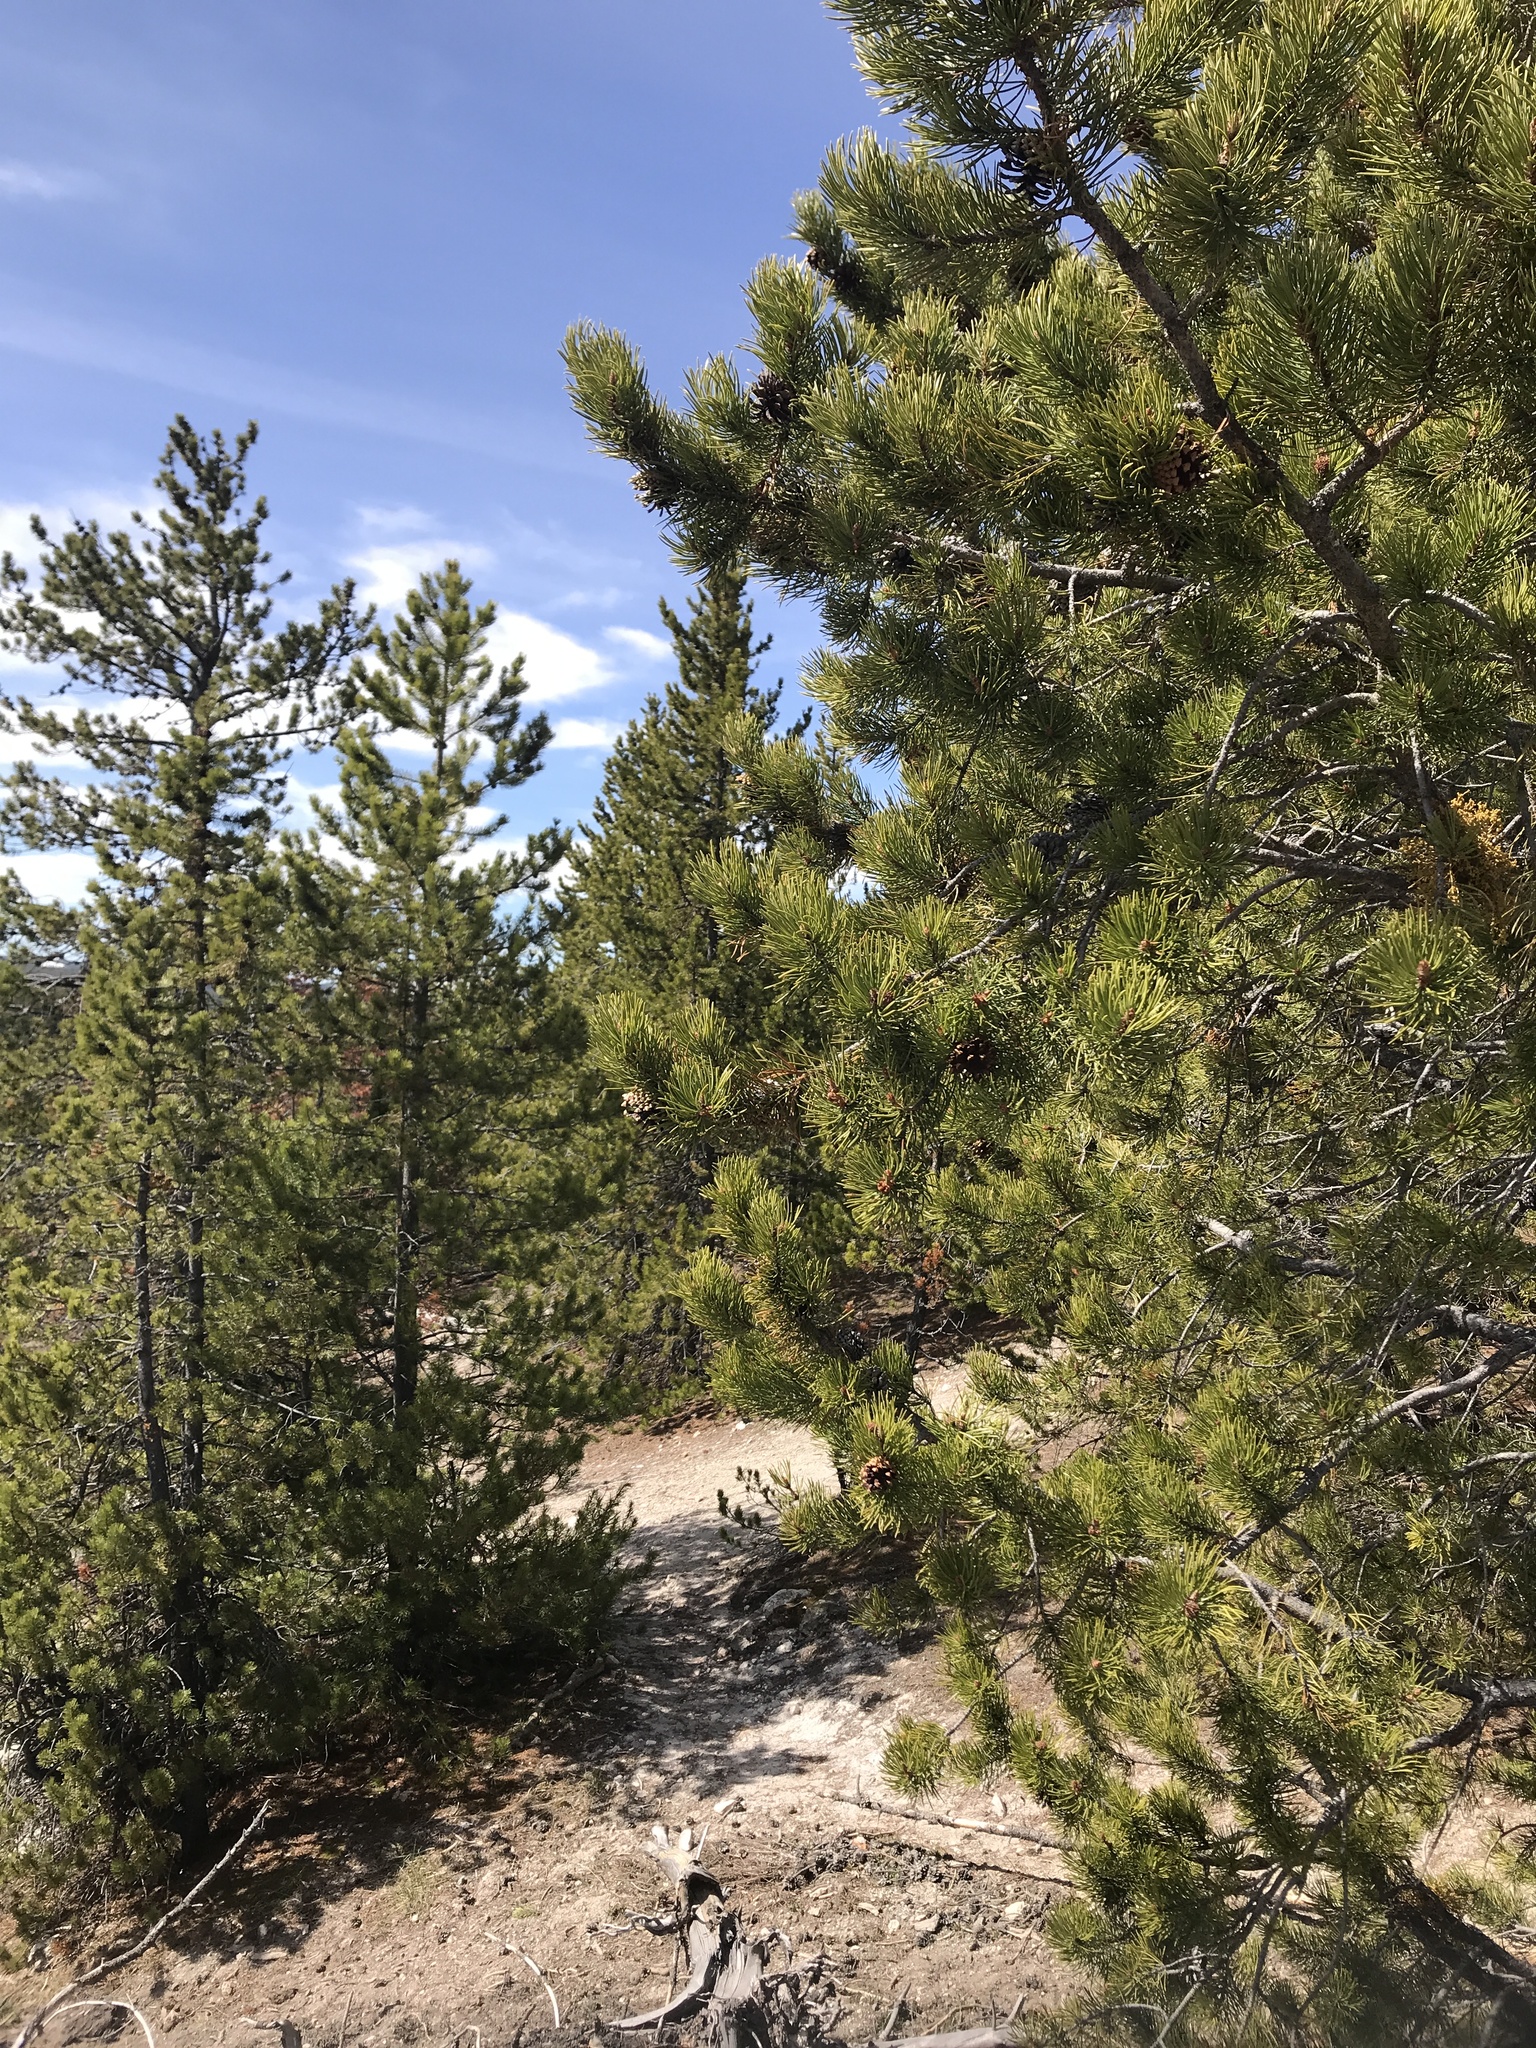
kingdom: Plantae
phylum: Tracheophyta
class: Pinopsida
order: Pinales
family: Pinaceae
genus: Pinus
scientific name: Pinus contorta
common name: Lodgepole pine
